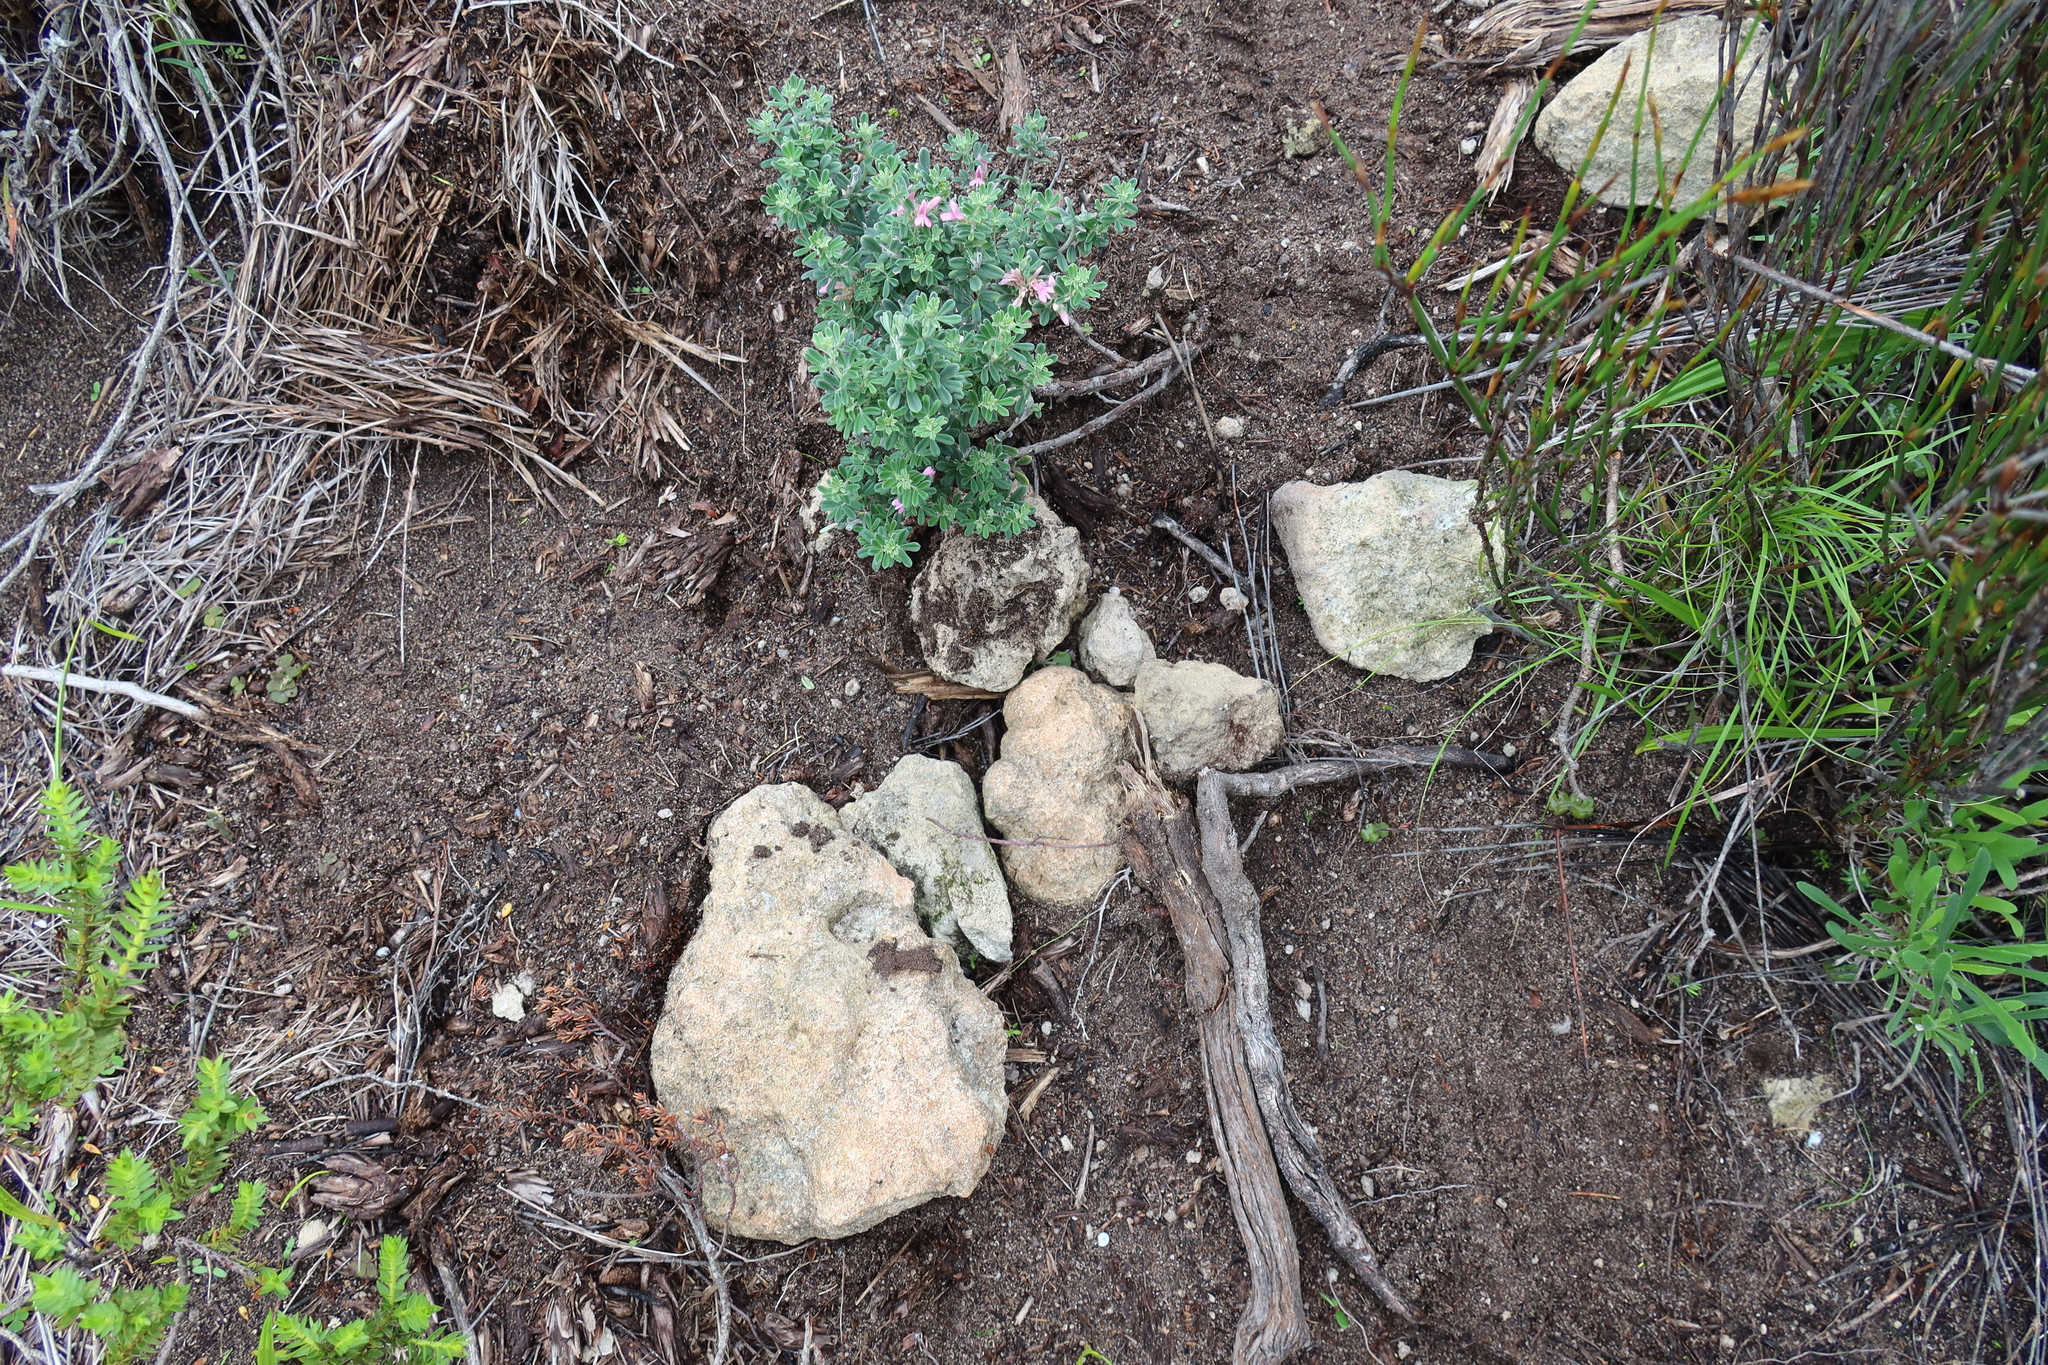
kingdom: Plantae
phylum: Tracheophyta
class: Magnoliopsida
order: Fabales
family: Fabaceae
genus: Indigofera
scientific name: Indigofera brachystachya
